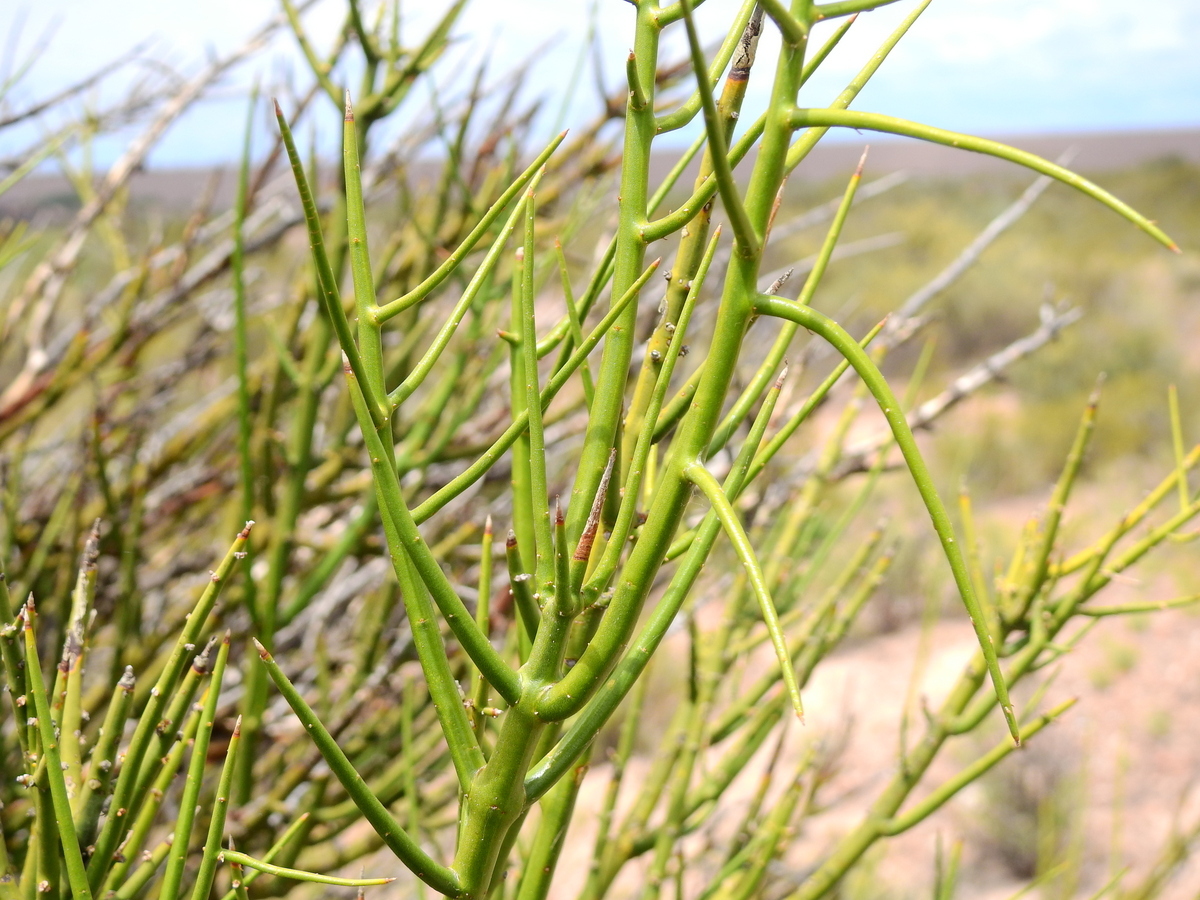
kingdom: Plantae
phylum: Tracheophyta
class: Magnoliopsida
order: Lamiales
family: Plantaginaceae
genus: Monttea
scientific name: Monttea aphylla
